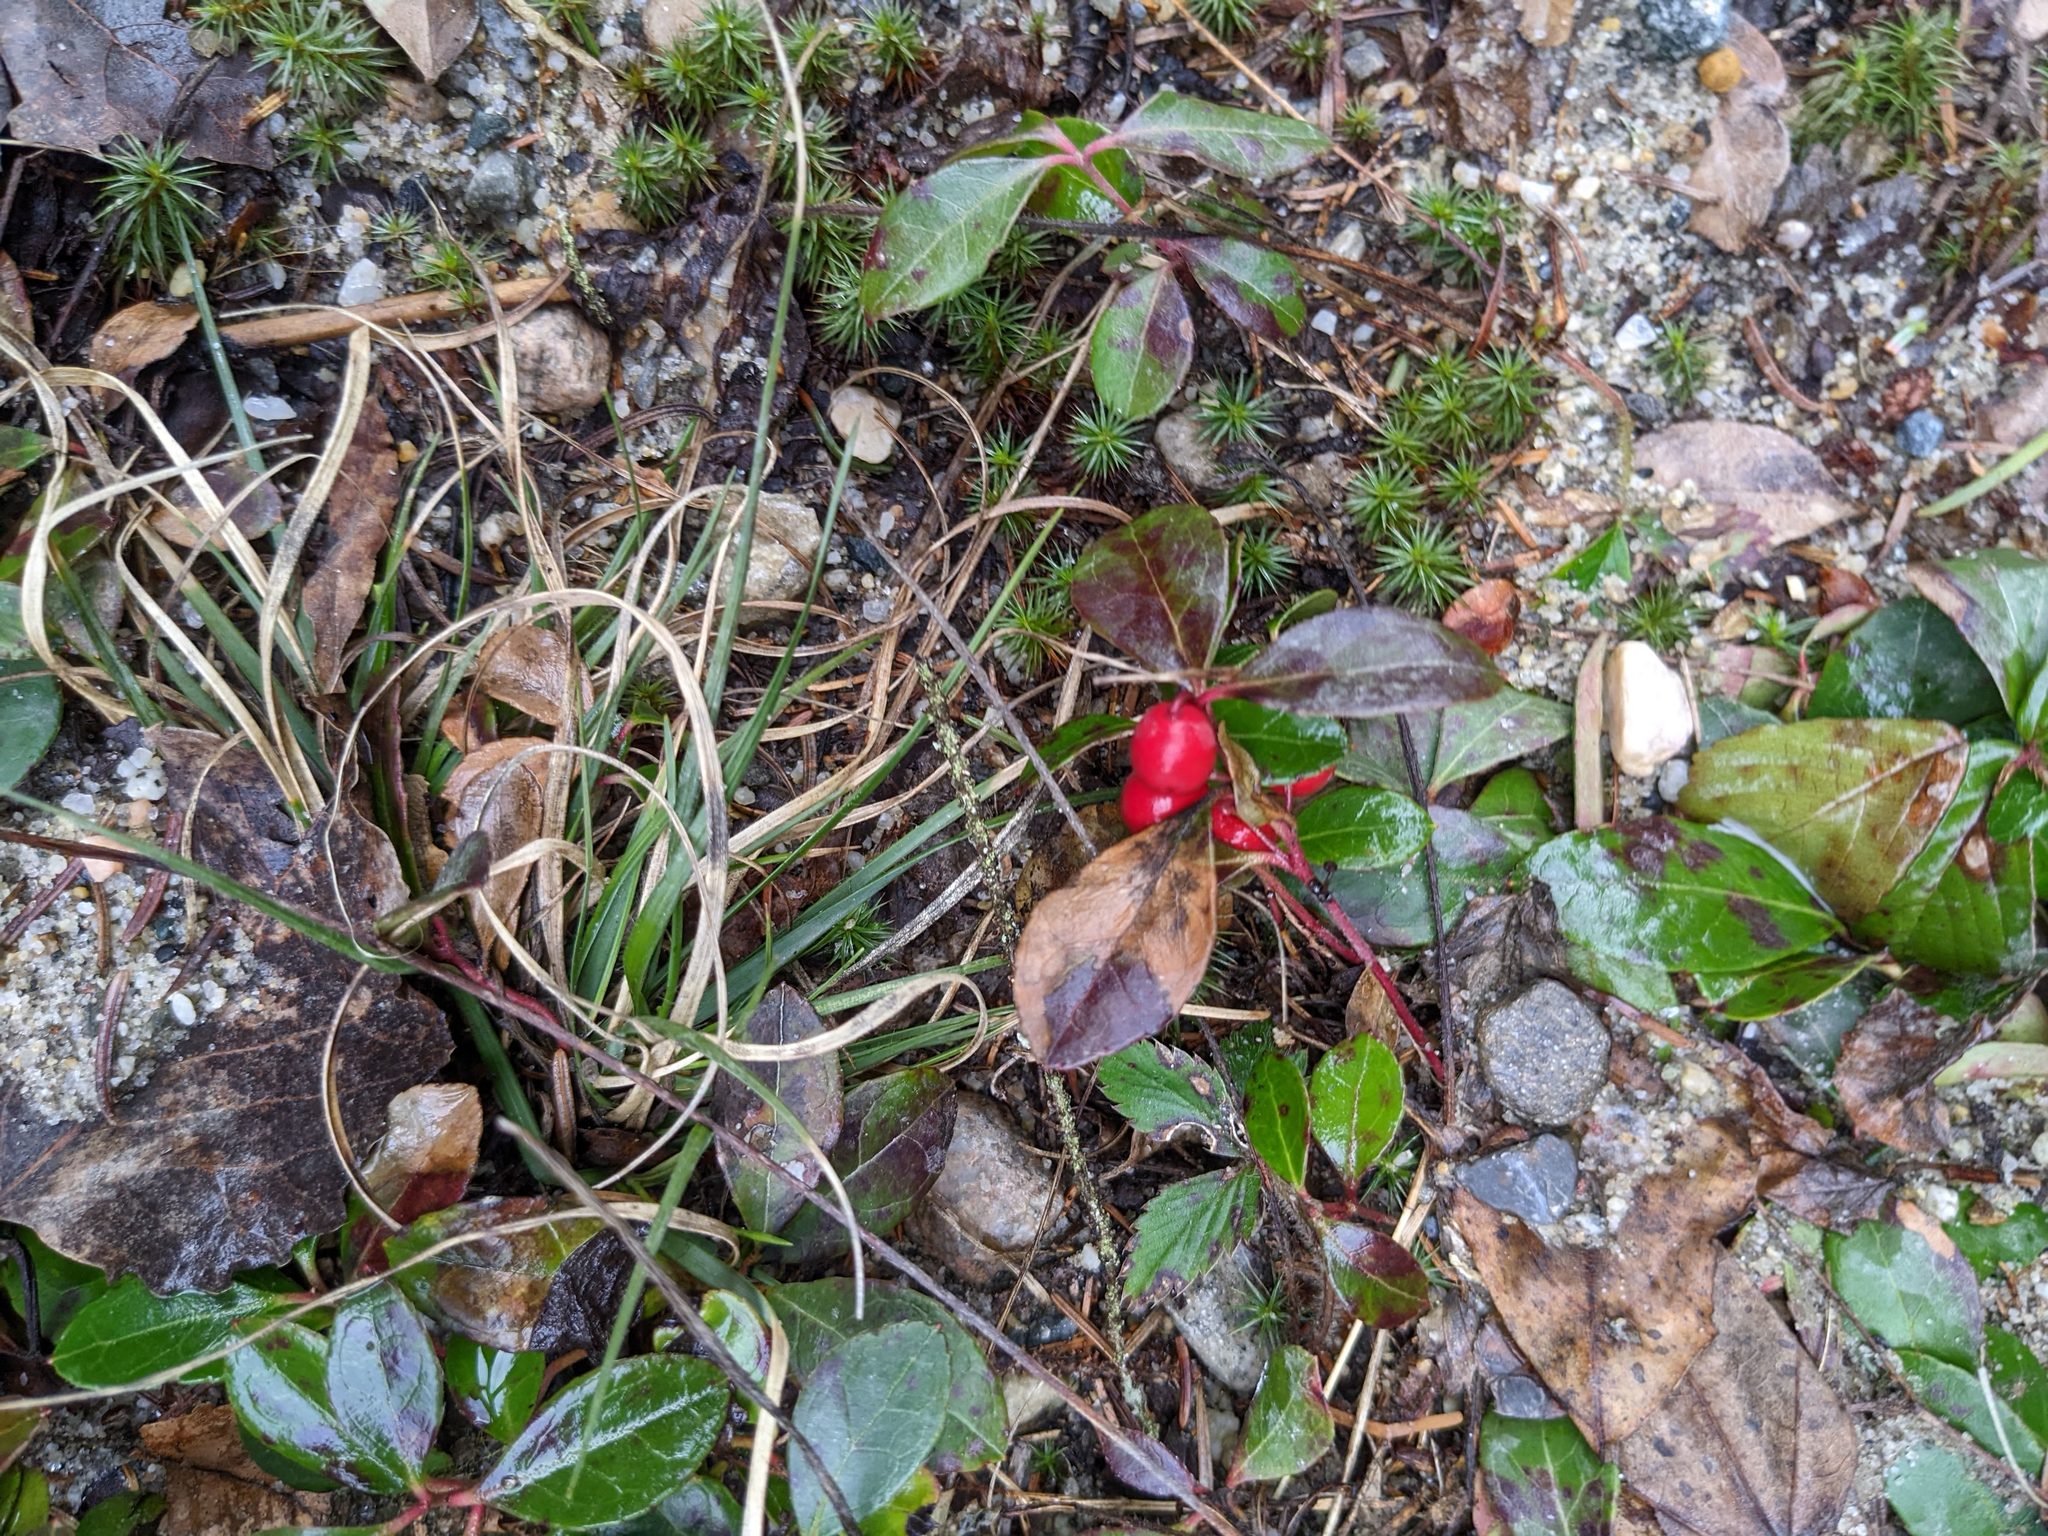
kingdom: Plantae
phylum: Tracheophyta
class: Magnoliopsida
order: Ericales
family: Ericaceae
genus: Gaultheria
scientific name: Gaultheria procumbens
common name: Checkerberry
